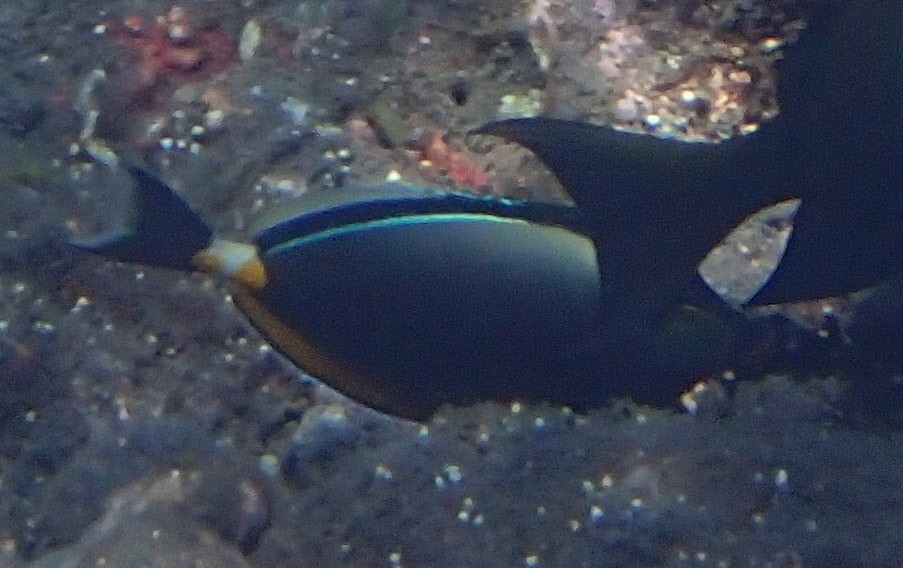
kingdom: Animalia
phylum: Chordata
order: Perciformes
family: Acanthuridae
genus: Naso
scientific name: Naso lituratus
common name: Orangespine unicornfish
